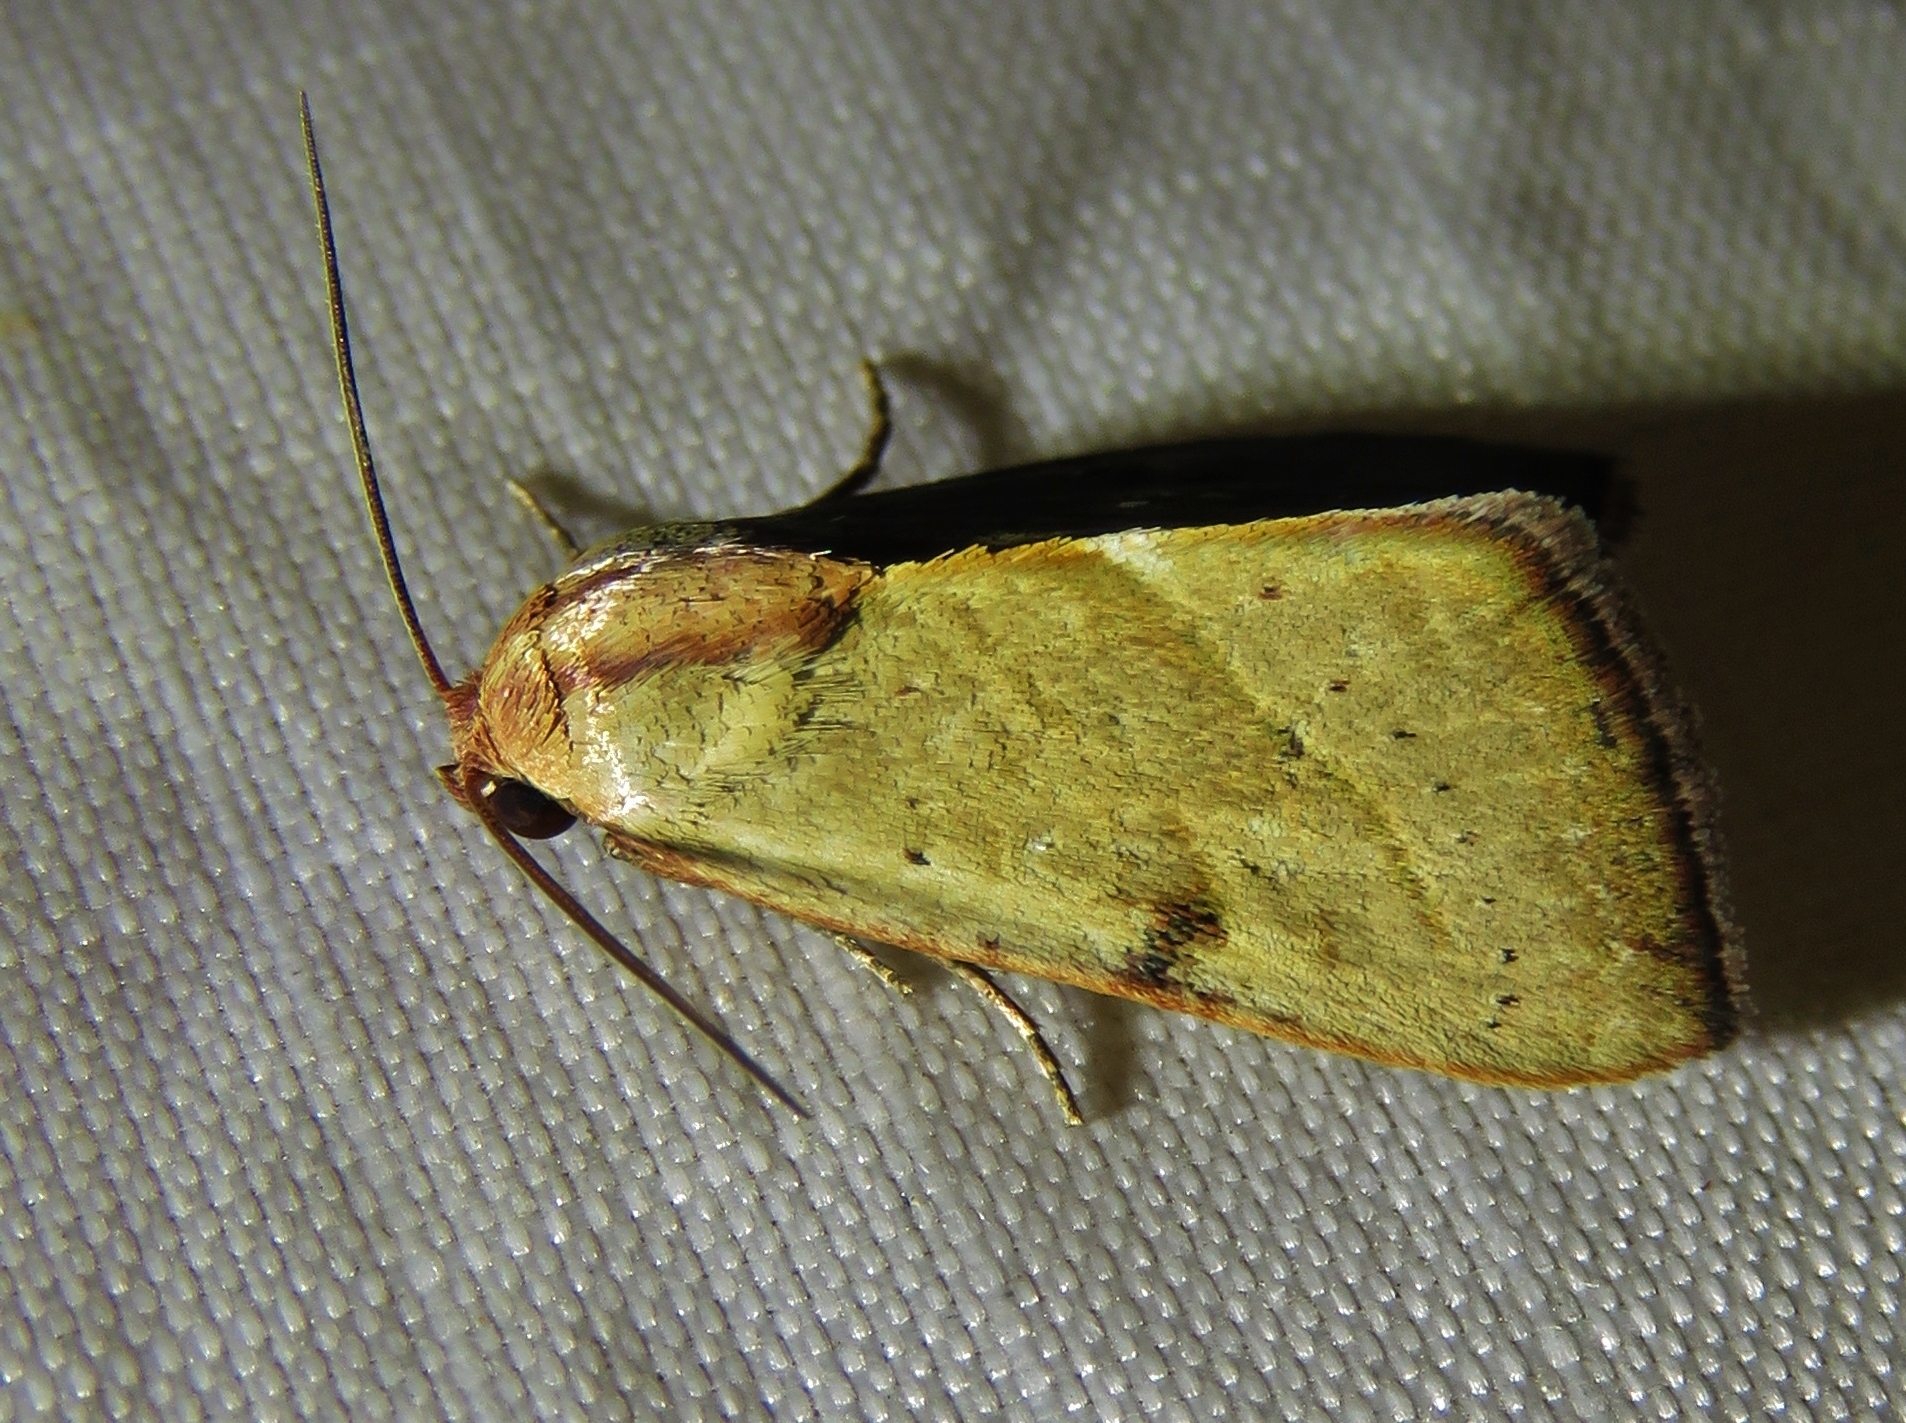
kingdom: Animalia
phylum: Arthropoda
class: Insecta
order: Lepidoptera
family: Noctuidae
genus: Galgula
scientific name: Galgula partita
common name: Wedgeling
